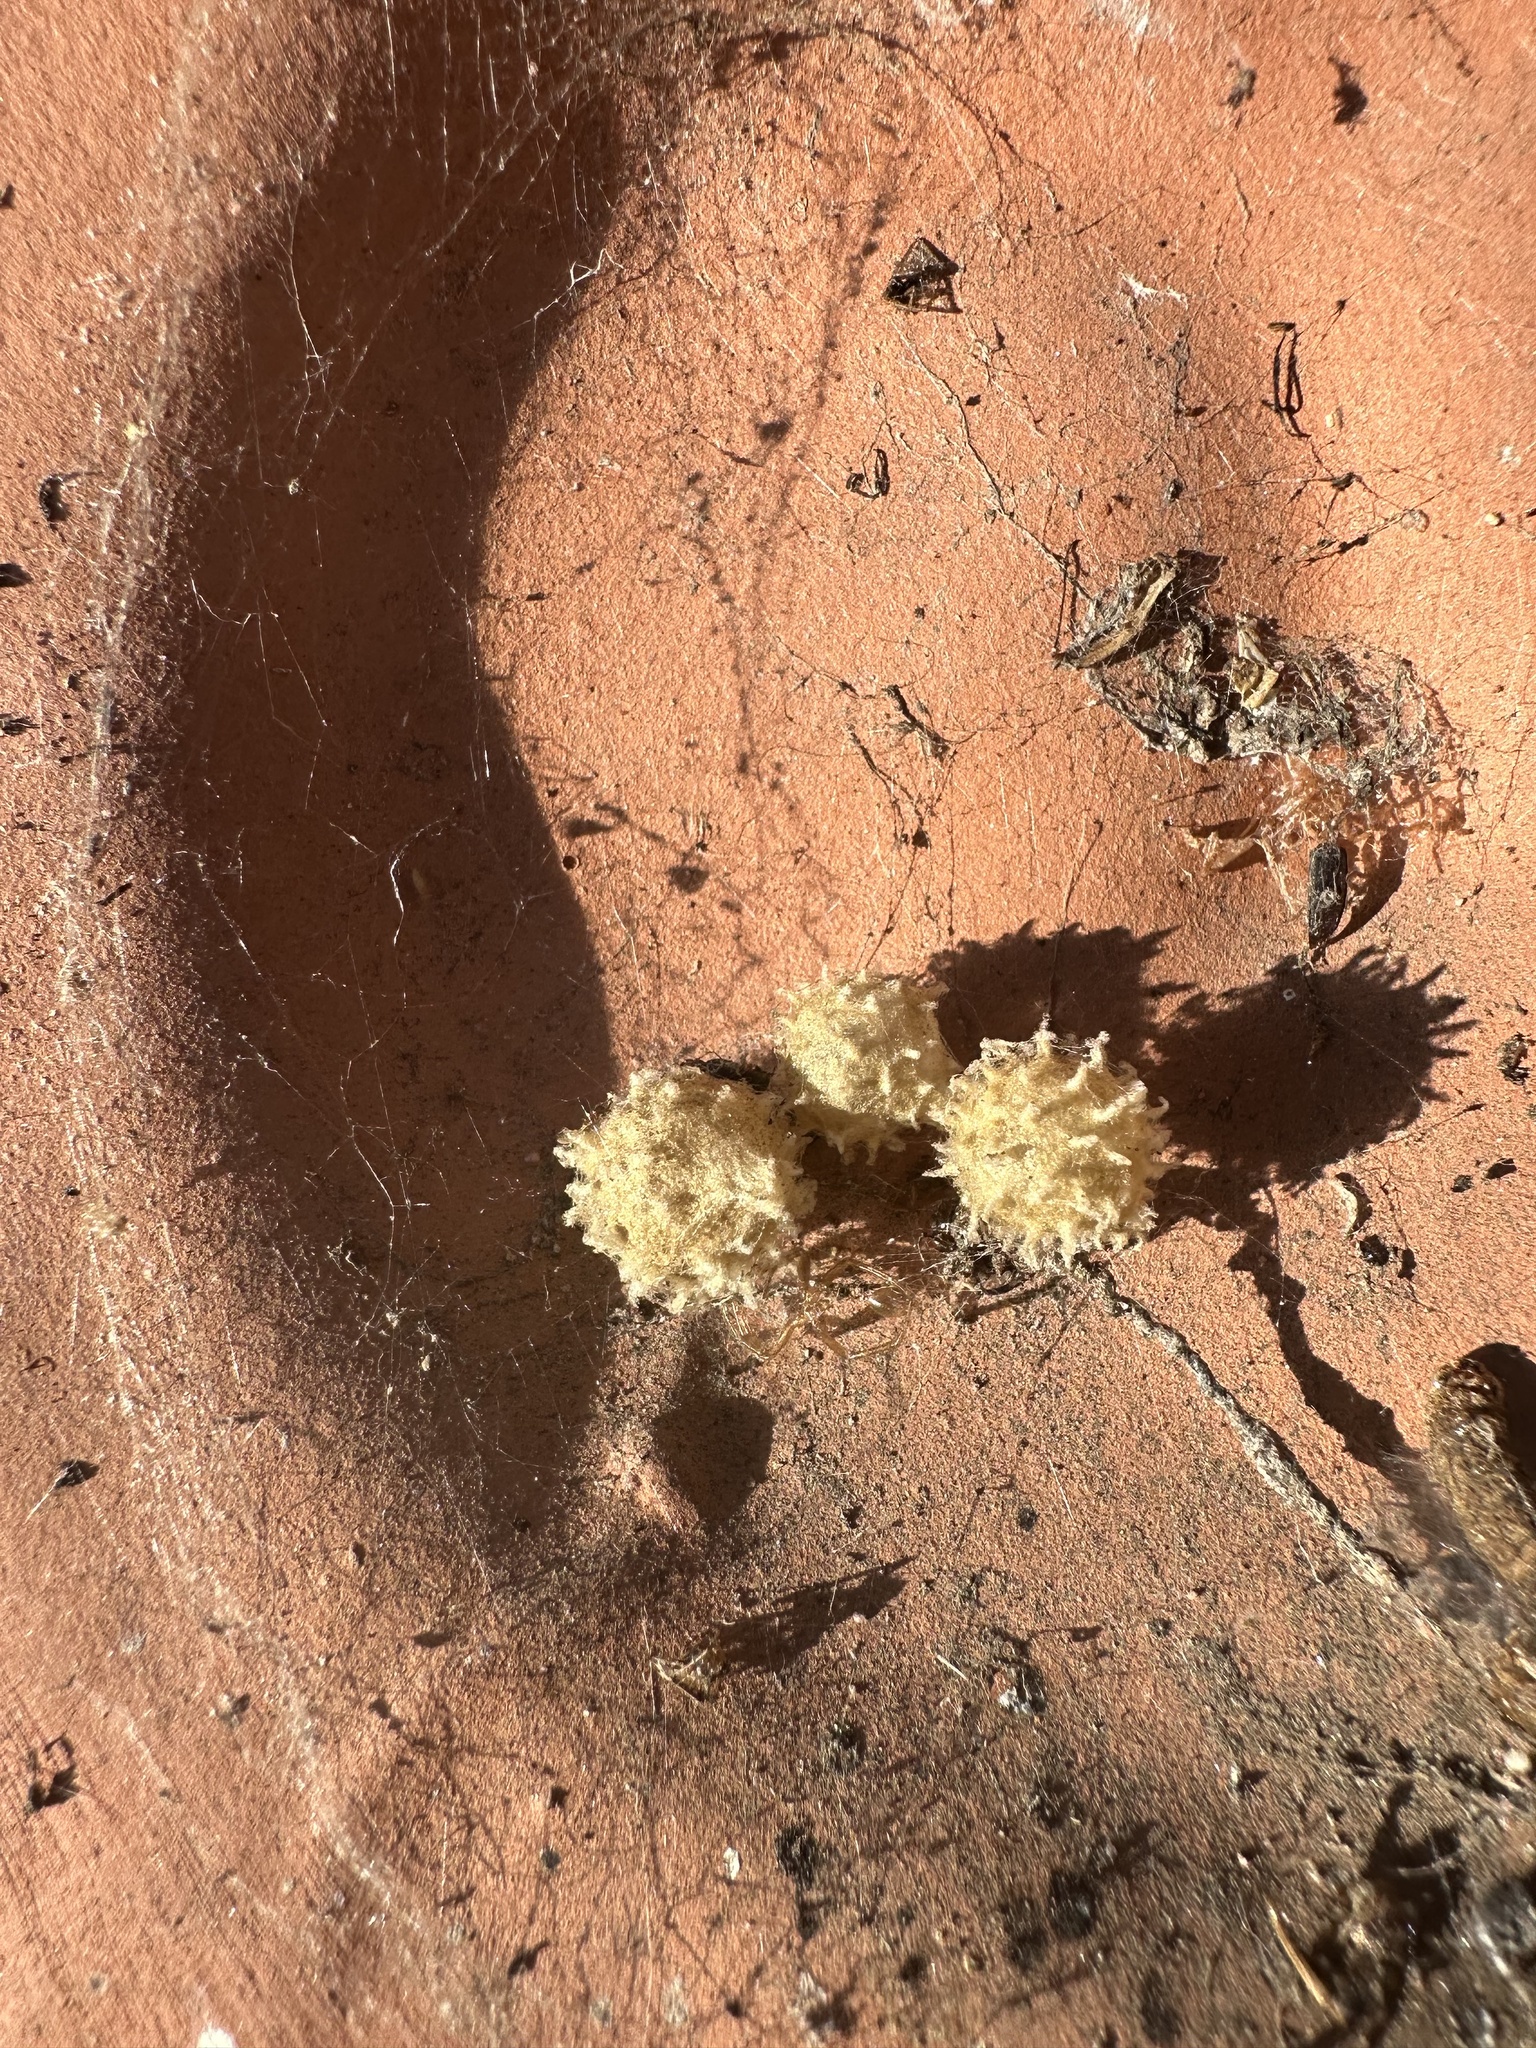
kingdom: Animalia
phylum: Arthropoda
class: Arachnida
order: Araneae
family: Theridiidae
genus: Latrodectus
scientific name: Latrodectus geometricus
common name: Brown widow spider
